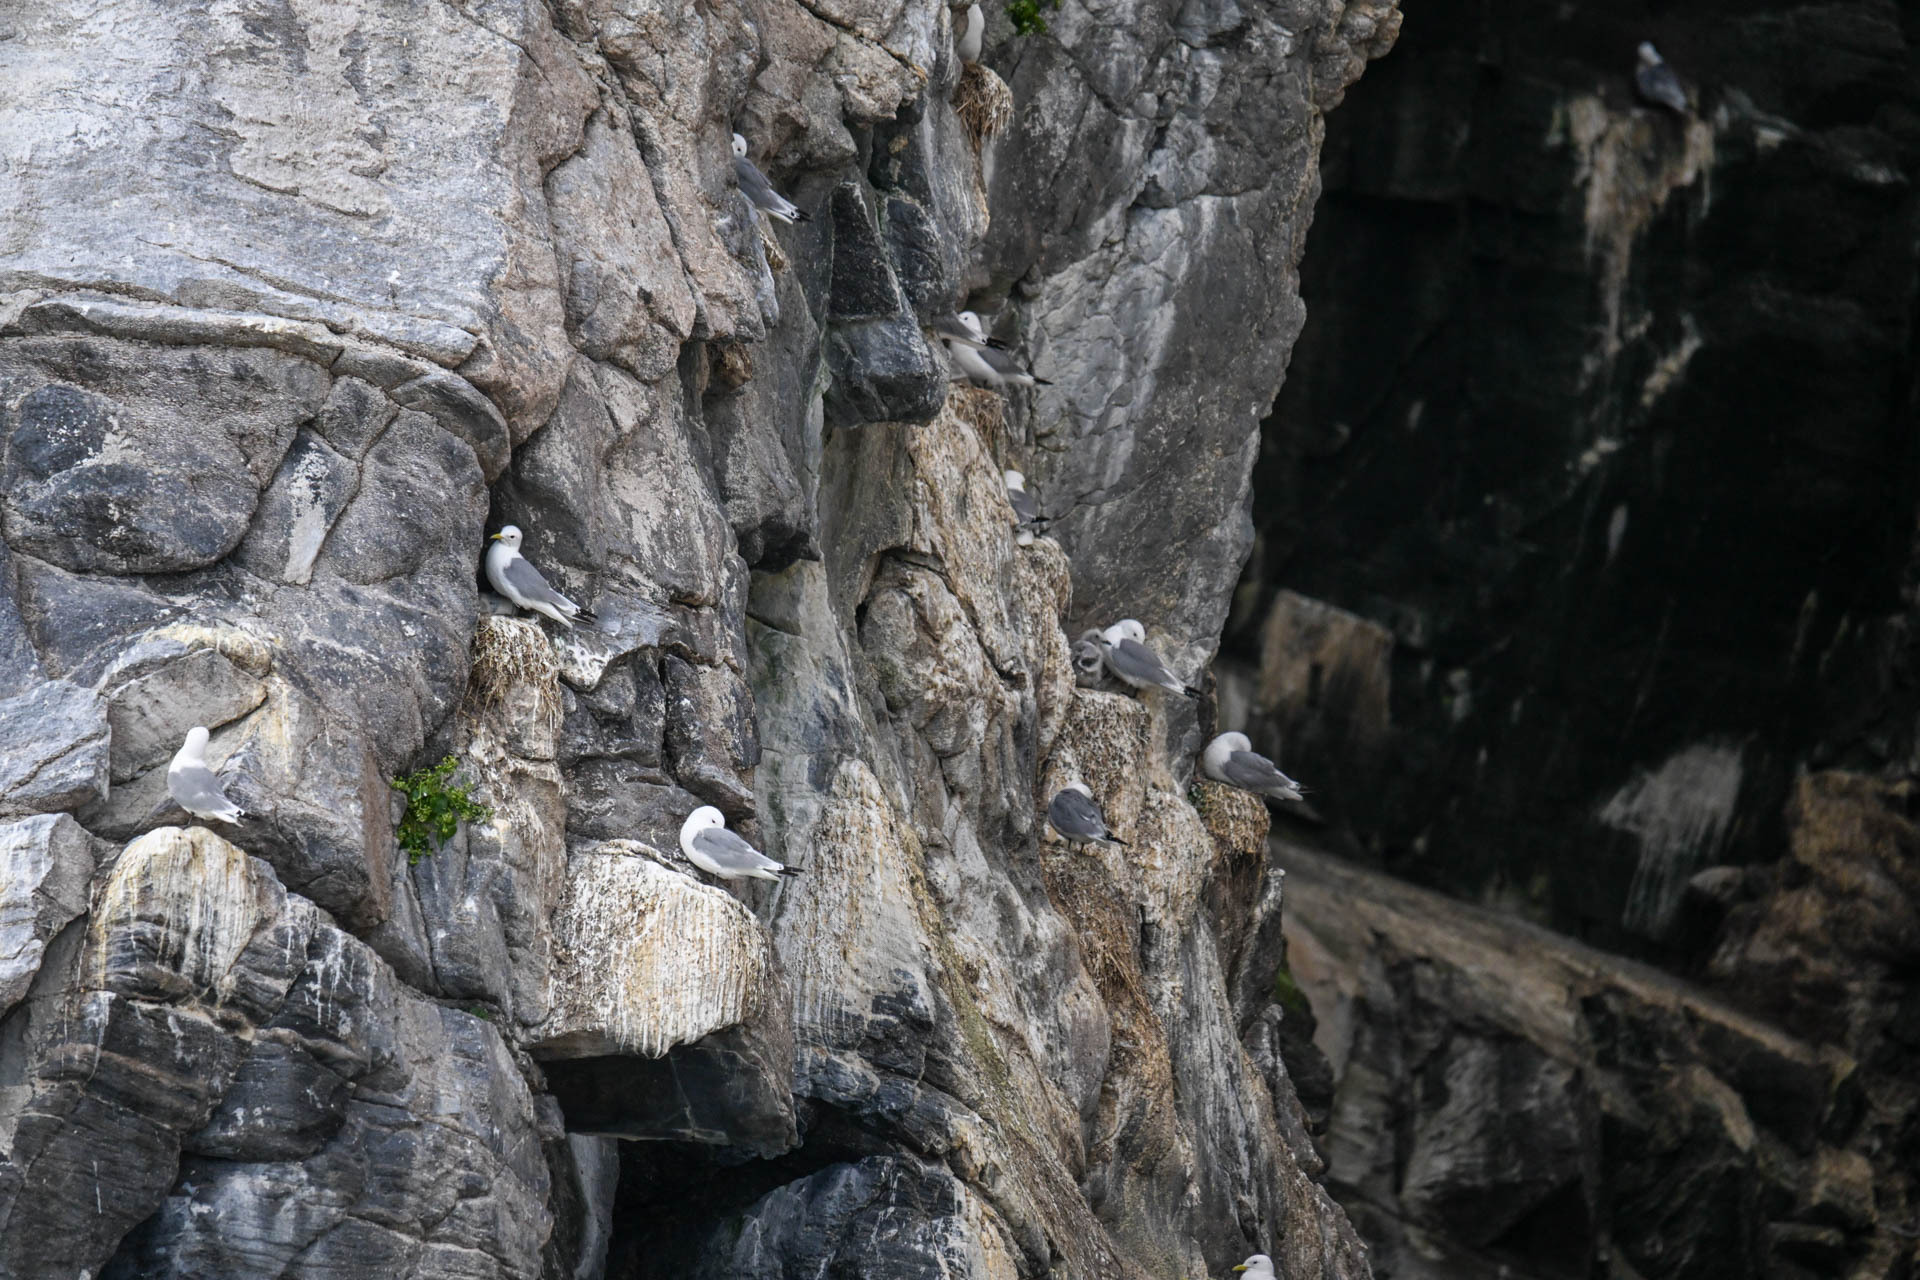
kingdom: Animalia
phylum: Chordata
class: Aves
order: Charadriiformes
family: Laridae
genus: Rissa
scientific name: Rissa tridactyla
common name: Black-legged kittiwake
